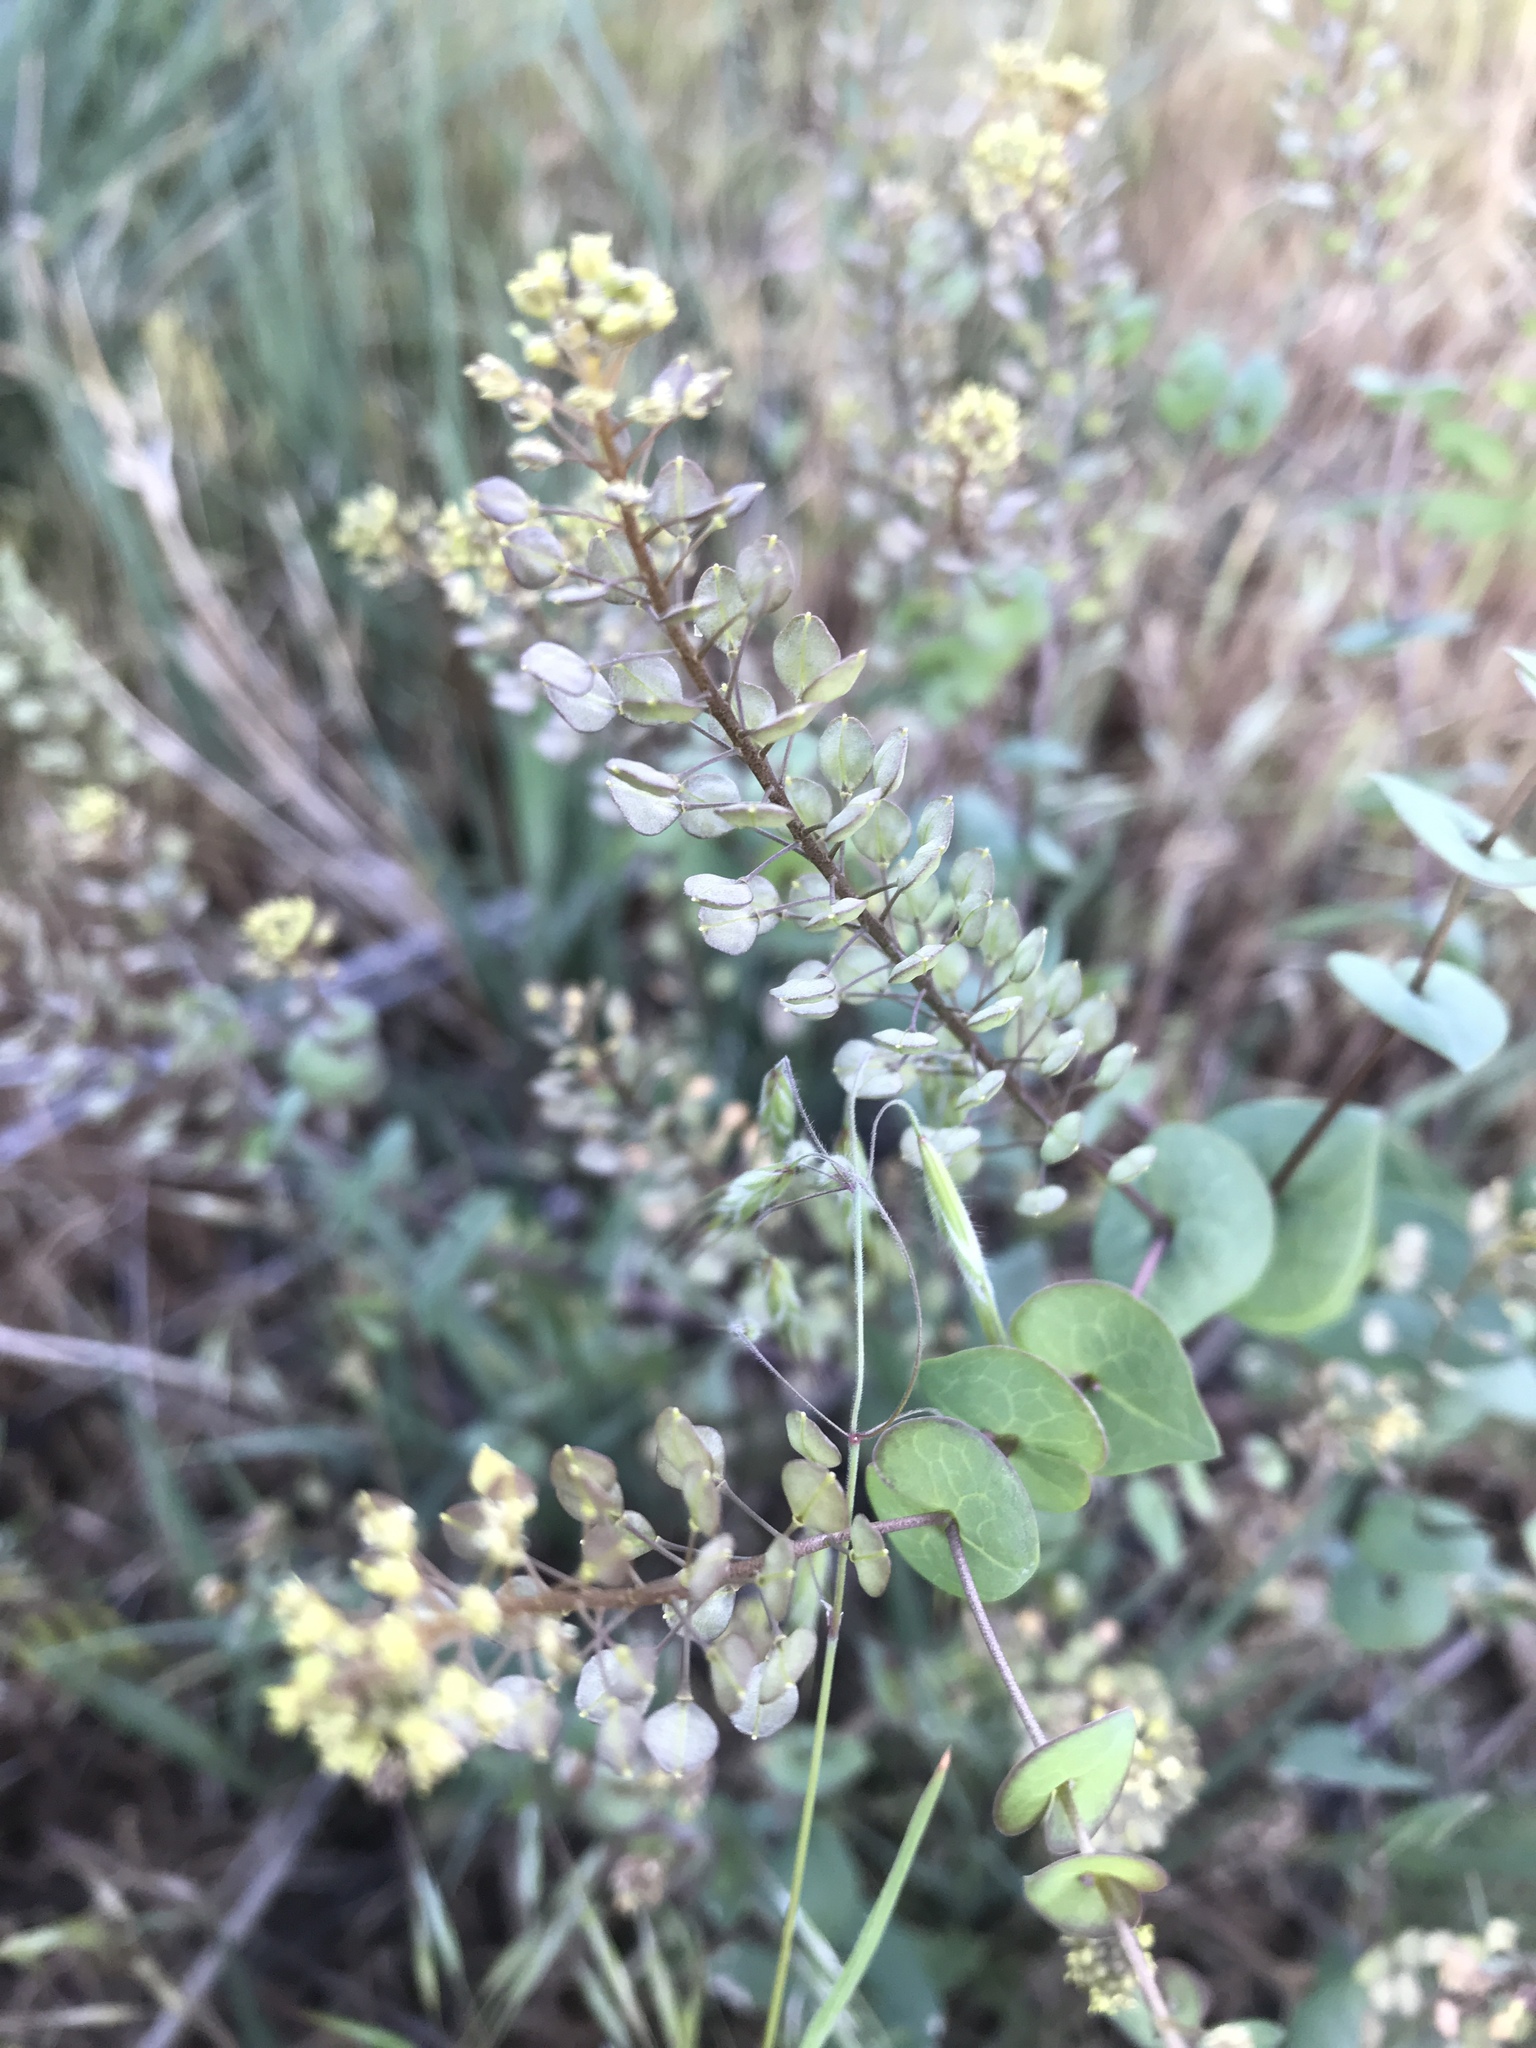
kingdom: Plantae
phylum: Tracheophyta
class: Magnoliopsida
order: Brassicales
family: Brassicaceae
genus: Lepidium
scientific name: Lepidium perfoliatum
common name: Perfoliate pepperwort
